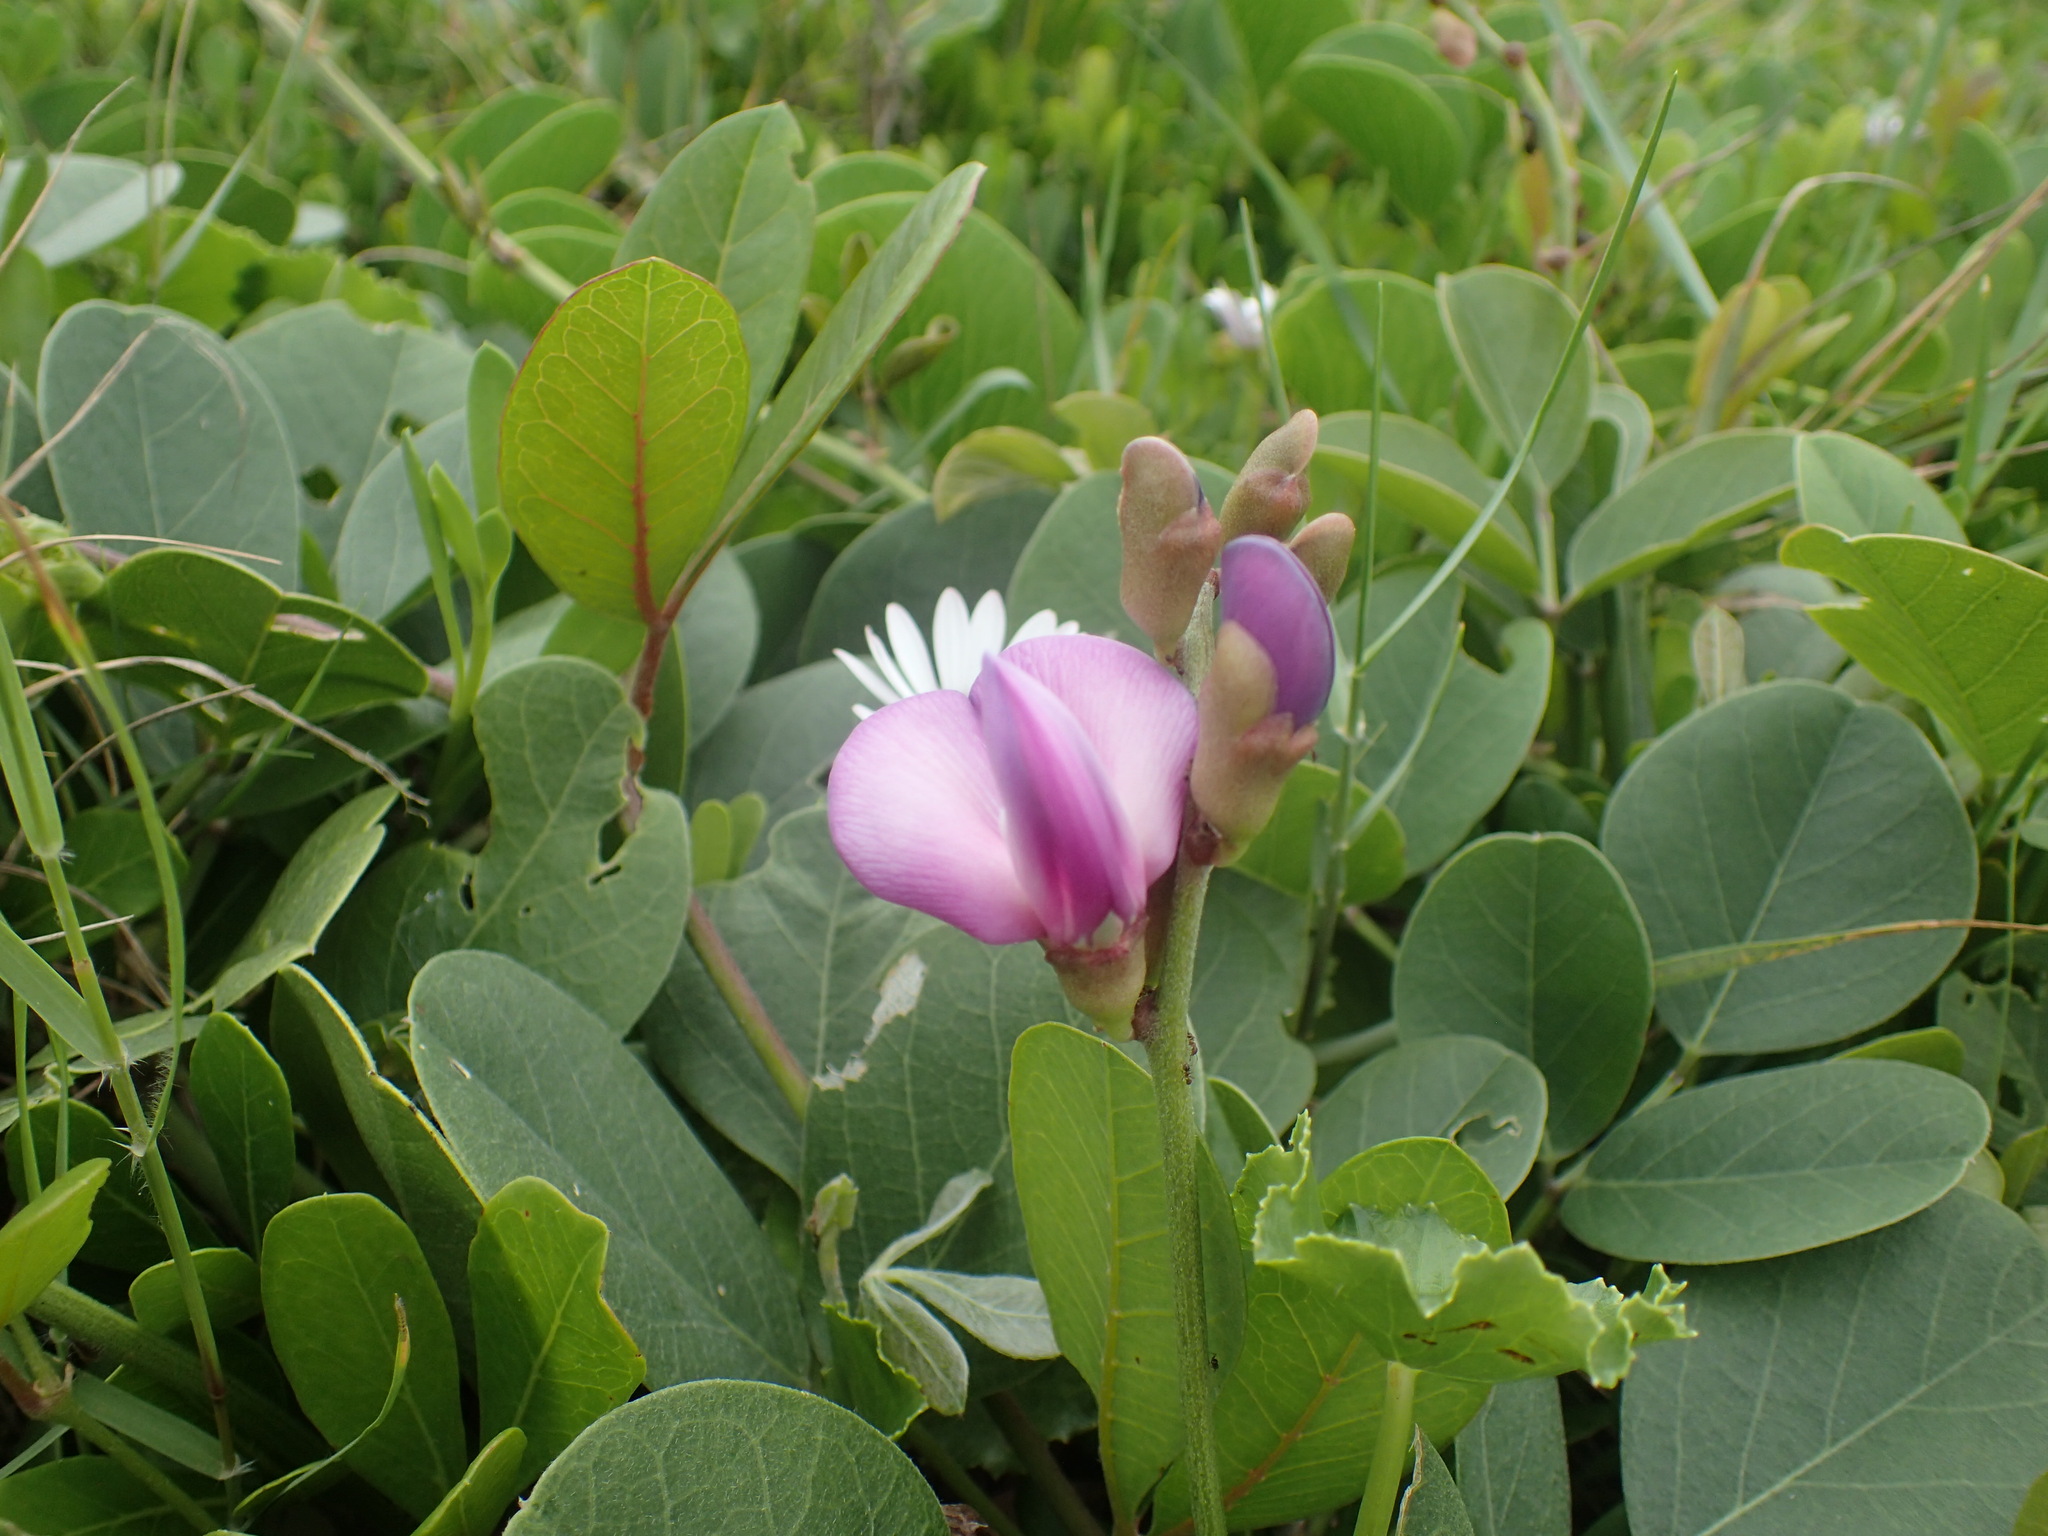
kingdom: Plantae
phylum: Tracheophyta
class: Magnoliopsida
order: Fabales
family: Fabaceae
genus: Canavalia
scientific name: Canavalia rosea
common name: Beach-bean
